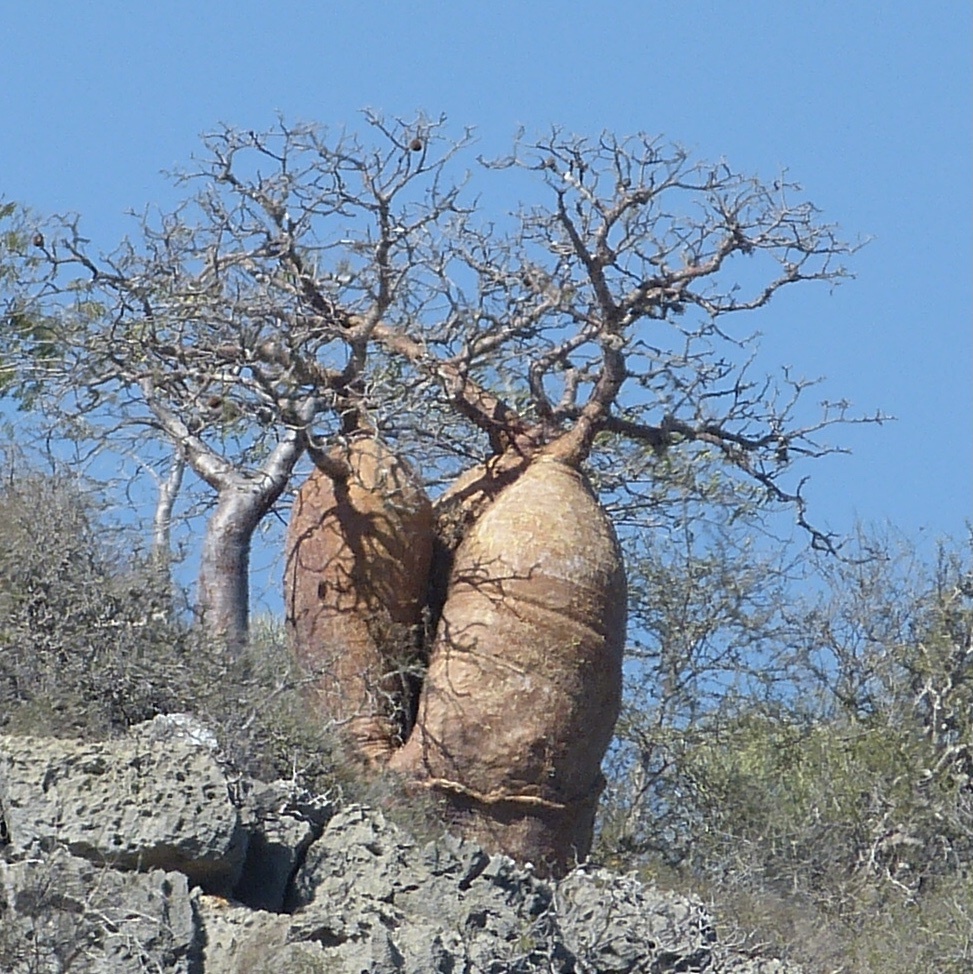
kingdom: Plantae
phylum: Tracheophyta
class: Magnoliopsida
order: Malvales
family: Malvaceae
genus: Adansonia
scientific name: Adansonia rubrostipa
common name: Fony baobab
